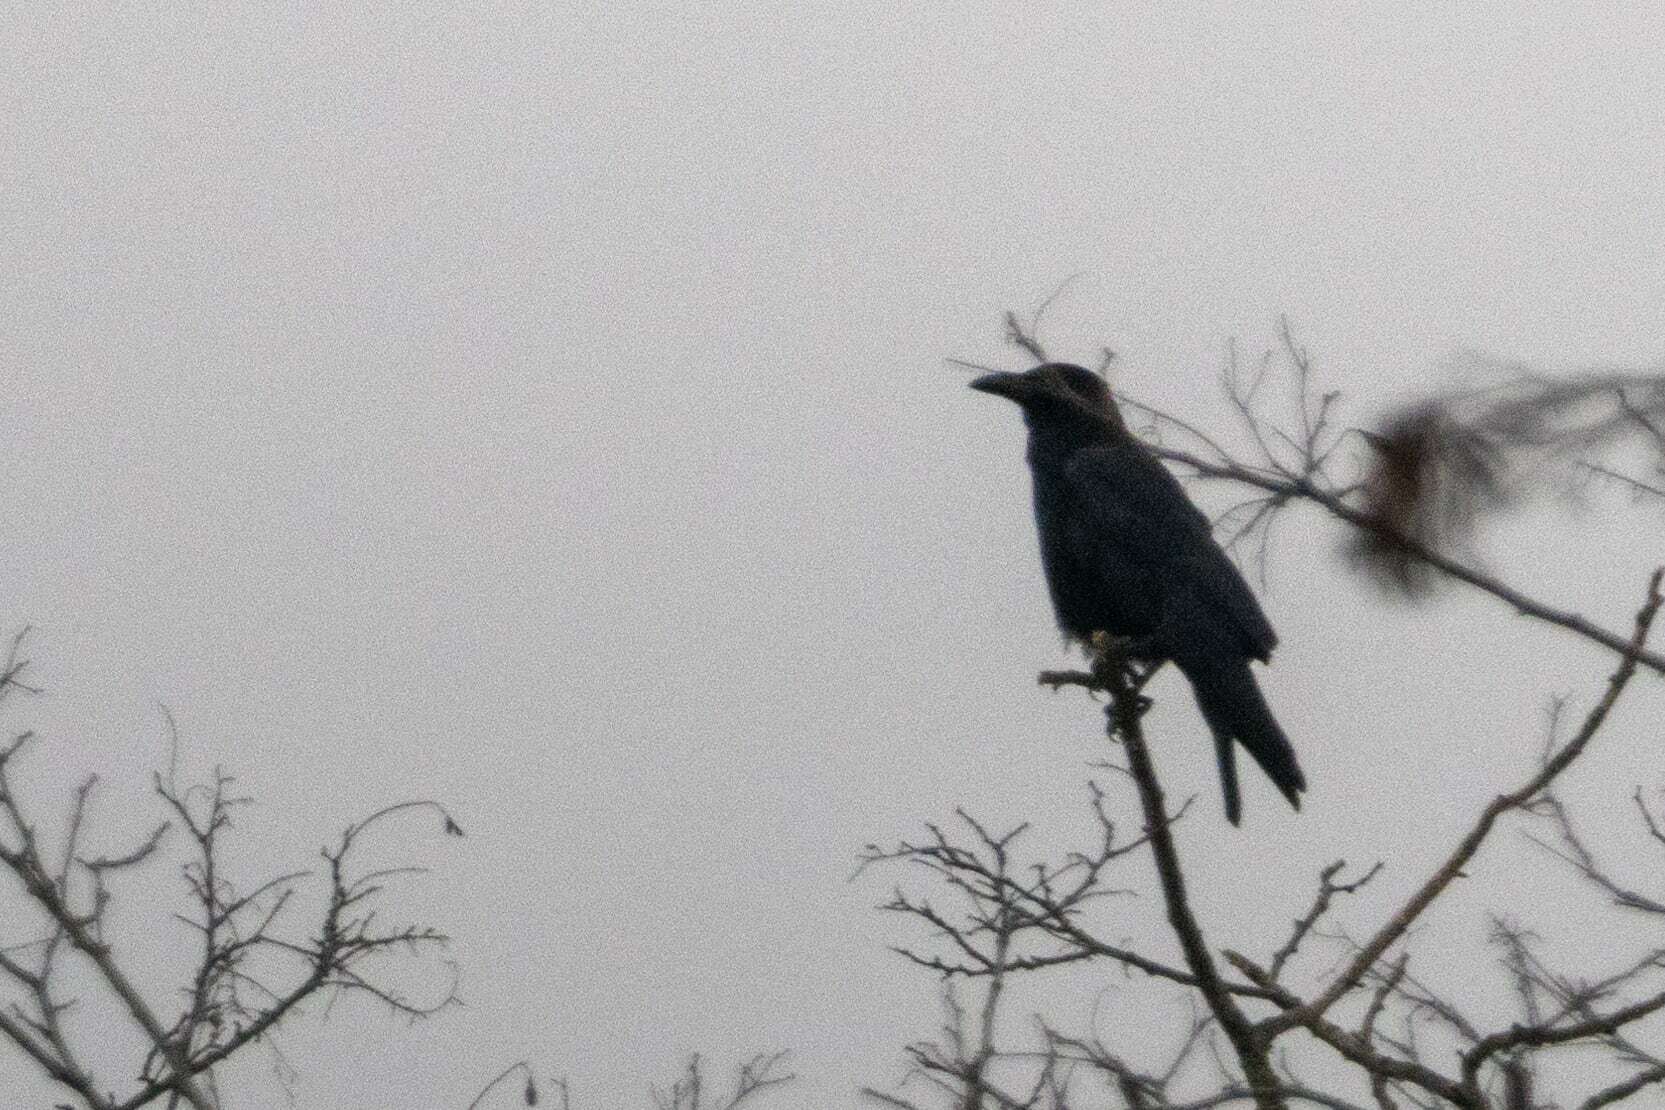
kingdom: Animalia
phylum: Chordata
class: Aves
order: Passeriformes
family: Corvidae
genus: Corvus
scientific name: Corvus corone
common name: Carrion crow
